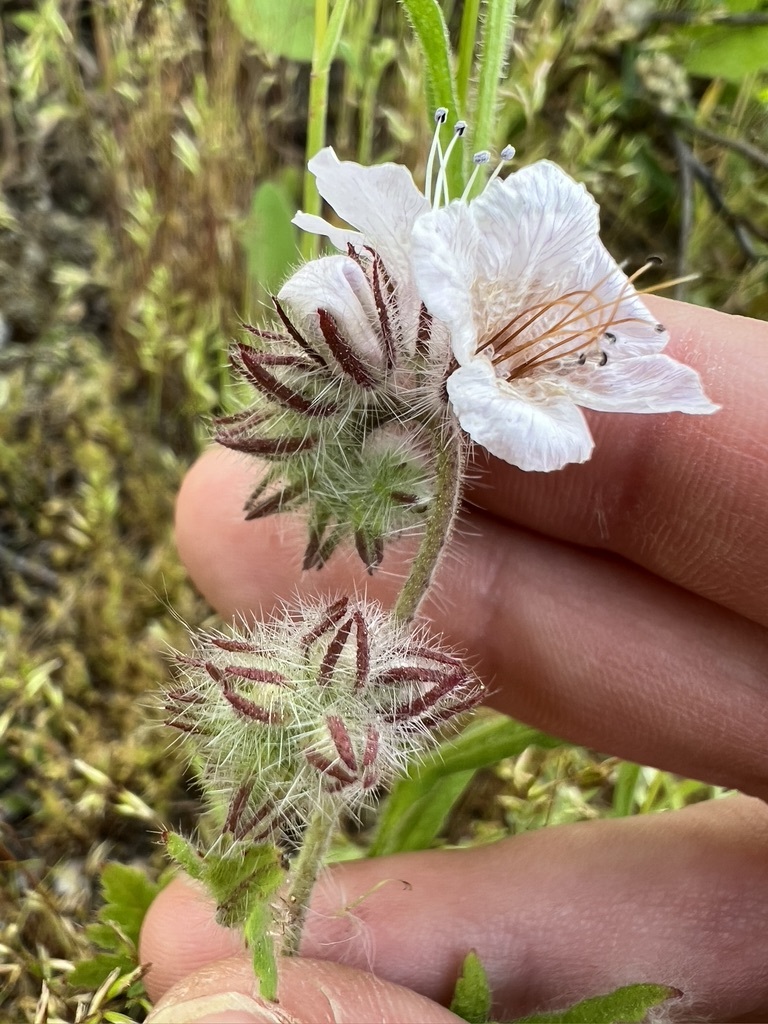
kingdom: Plantae
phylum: Tracheophyta
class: Magnoliopsida
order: Boraginales
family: Hydrophyllaceae
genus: Phacelia
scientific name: Phacelia cicutaria
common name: Caterpillar phacelia
